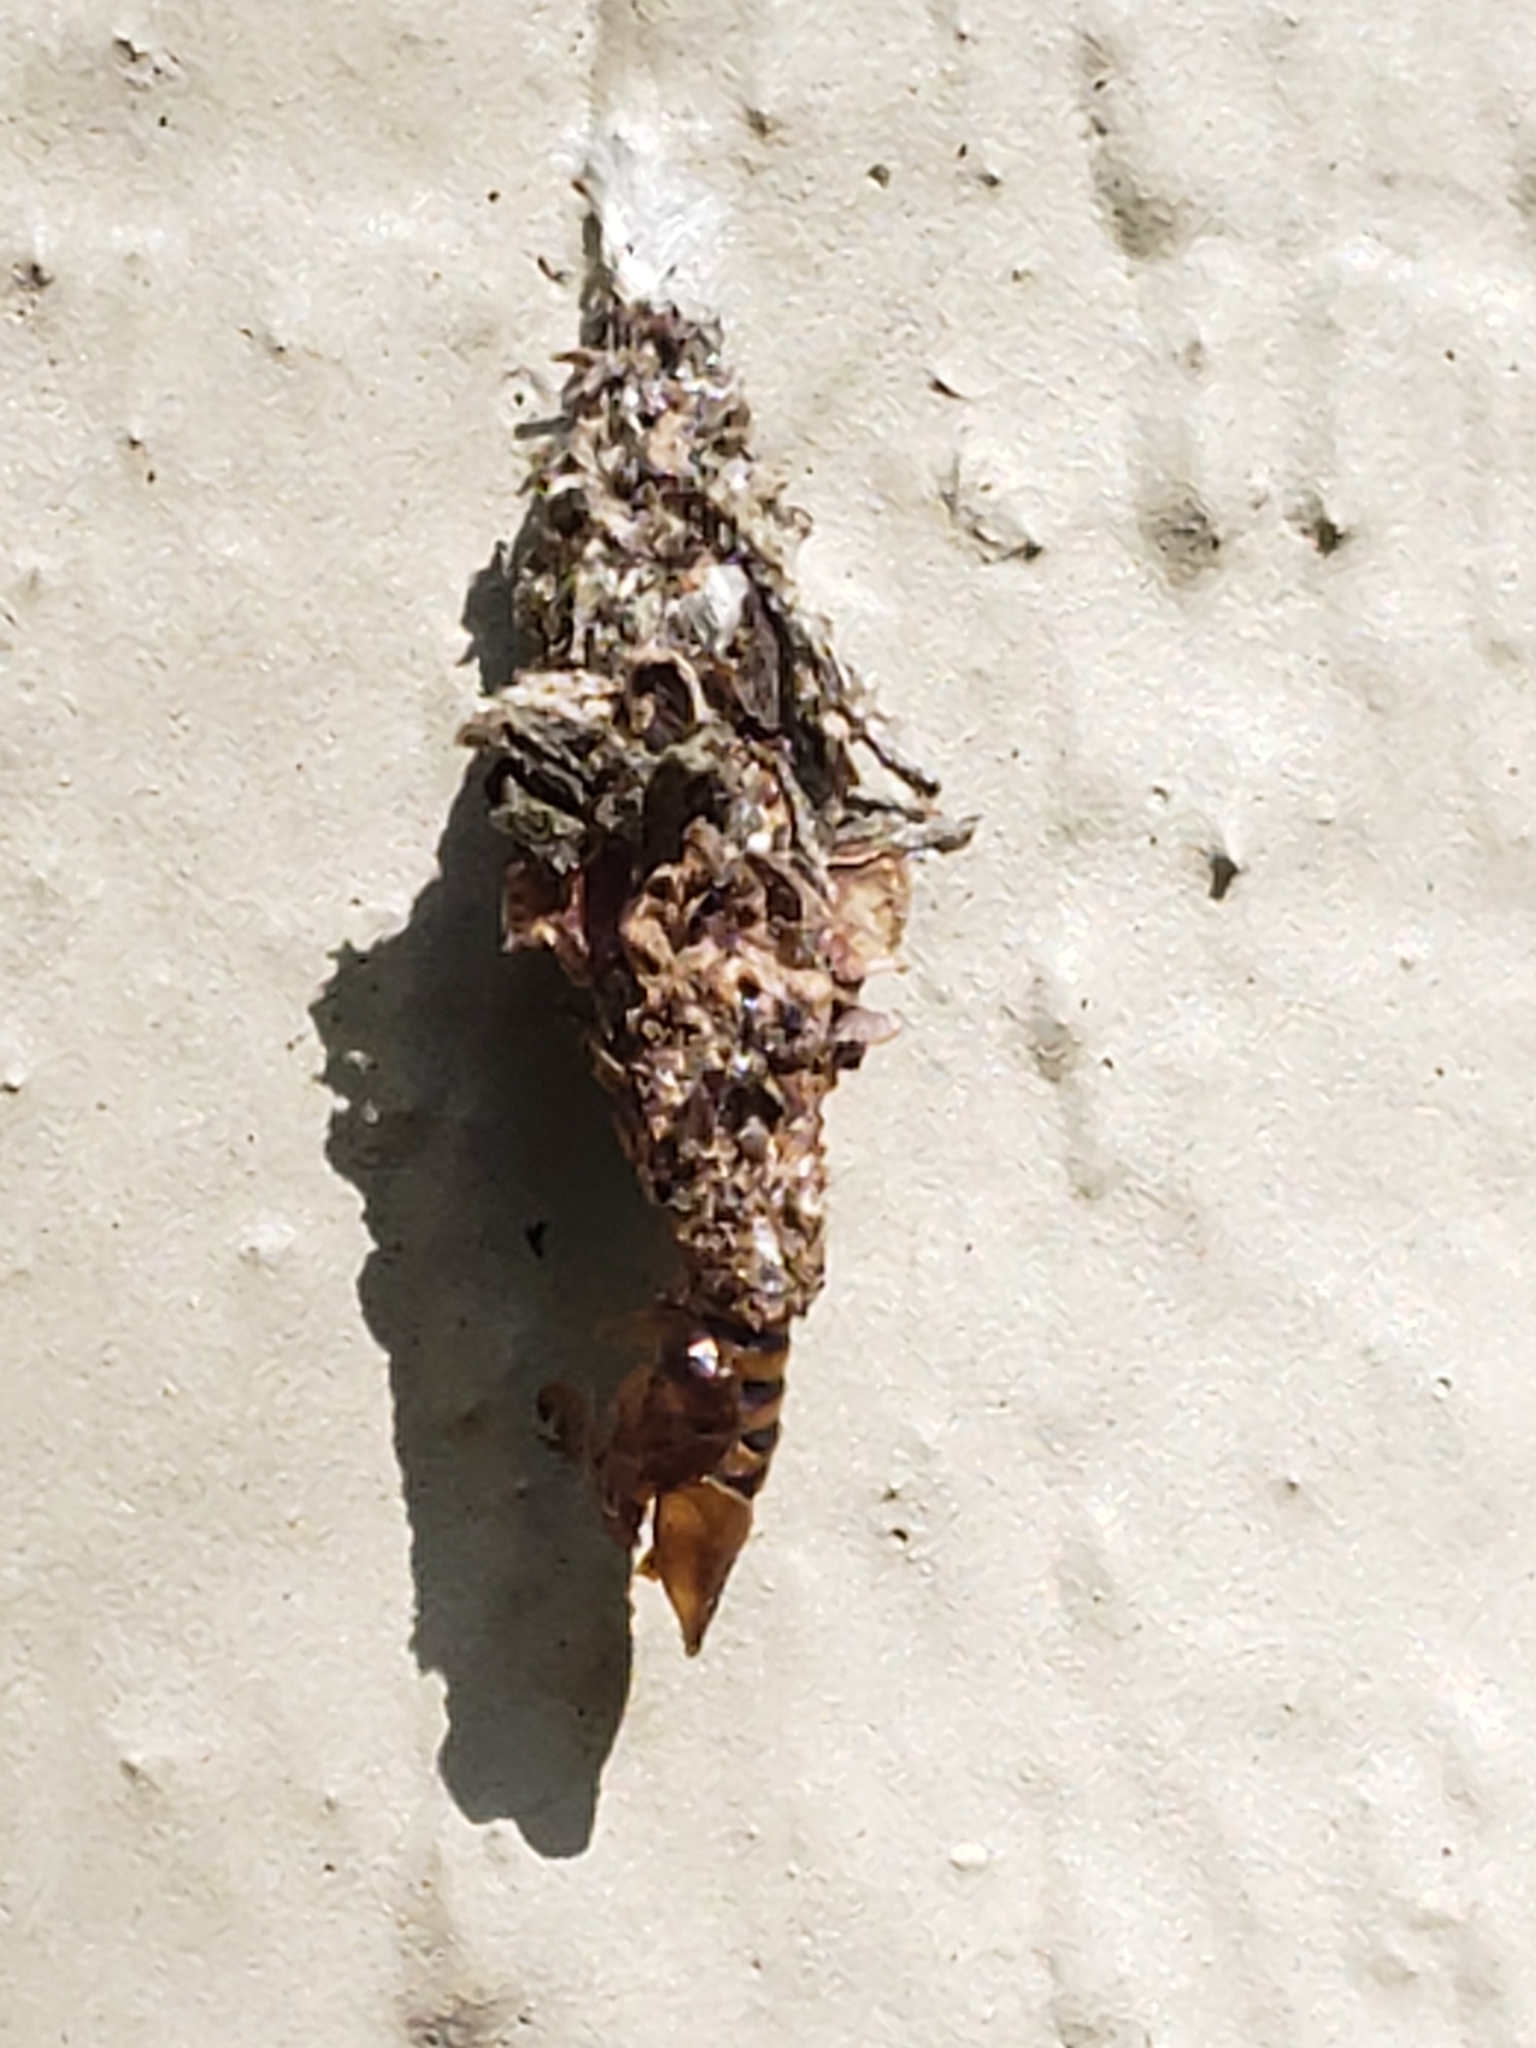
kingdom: Animalia
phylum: Arthropoda
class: Insecta
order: Lepidoptera
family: Psychidae
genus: Oiketicus
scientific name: Oiketicus
